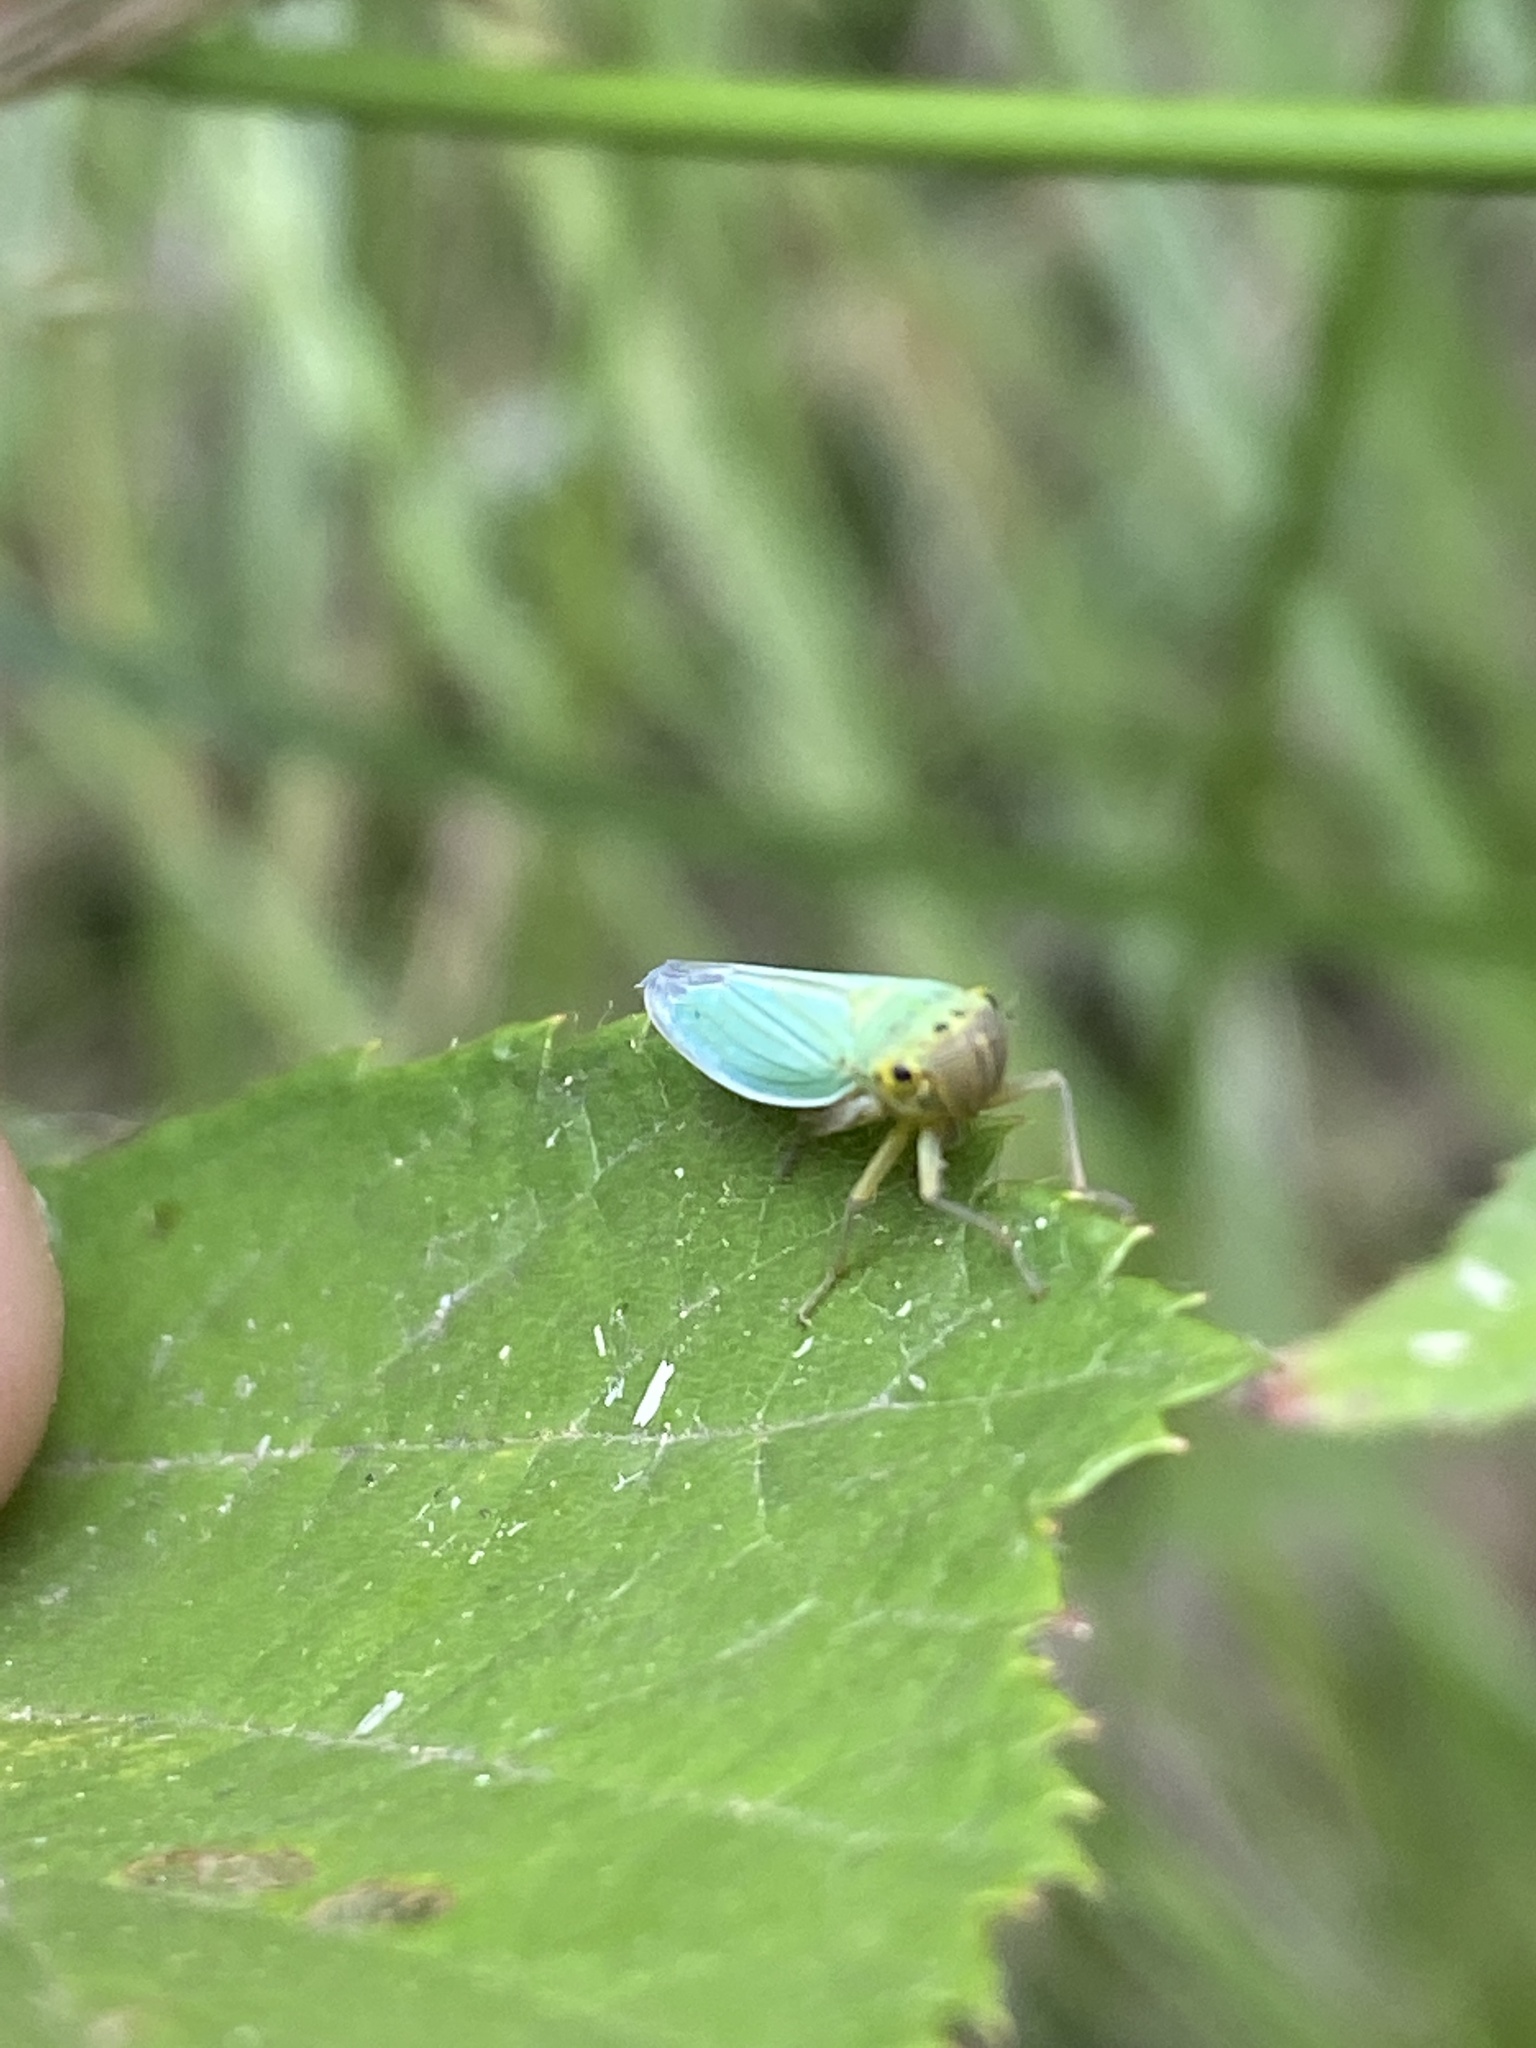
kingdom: Animalia
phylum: Arthropoda
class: Insecta
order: Hemiptera
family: Cicadellidae
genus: Cicadella
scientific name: Cicadella viridis
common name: Leafhopper
